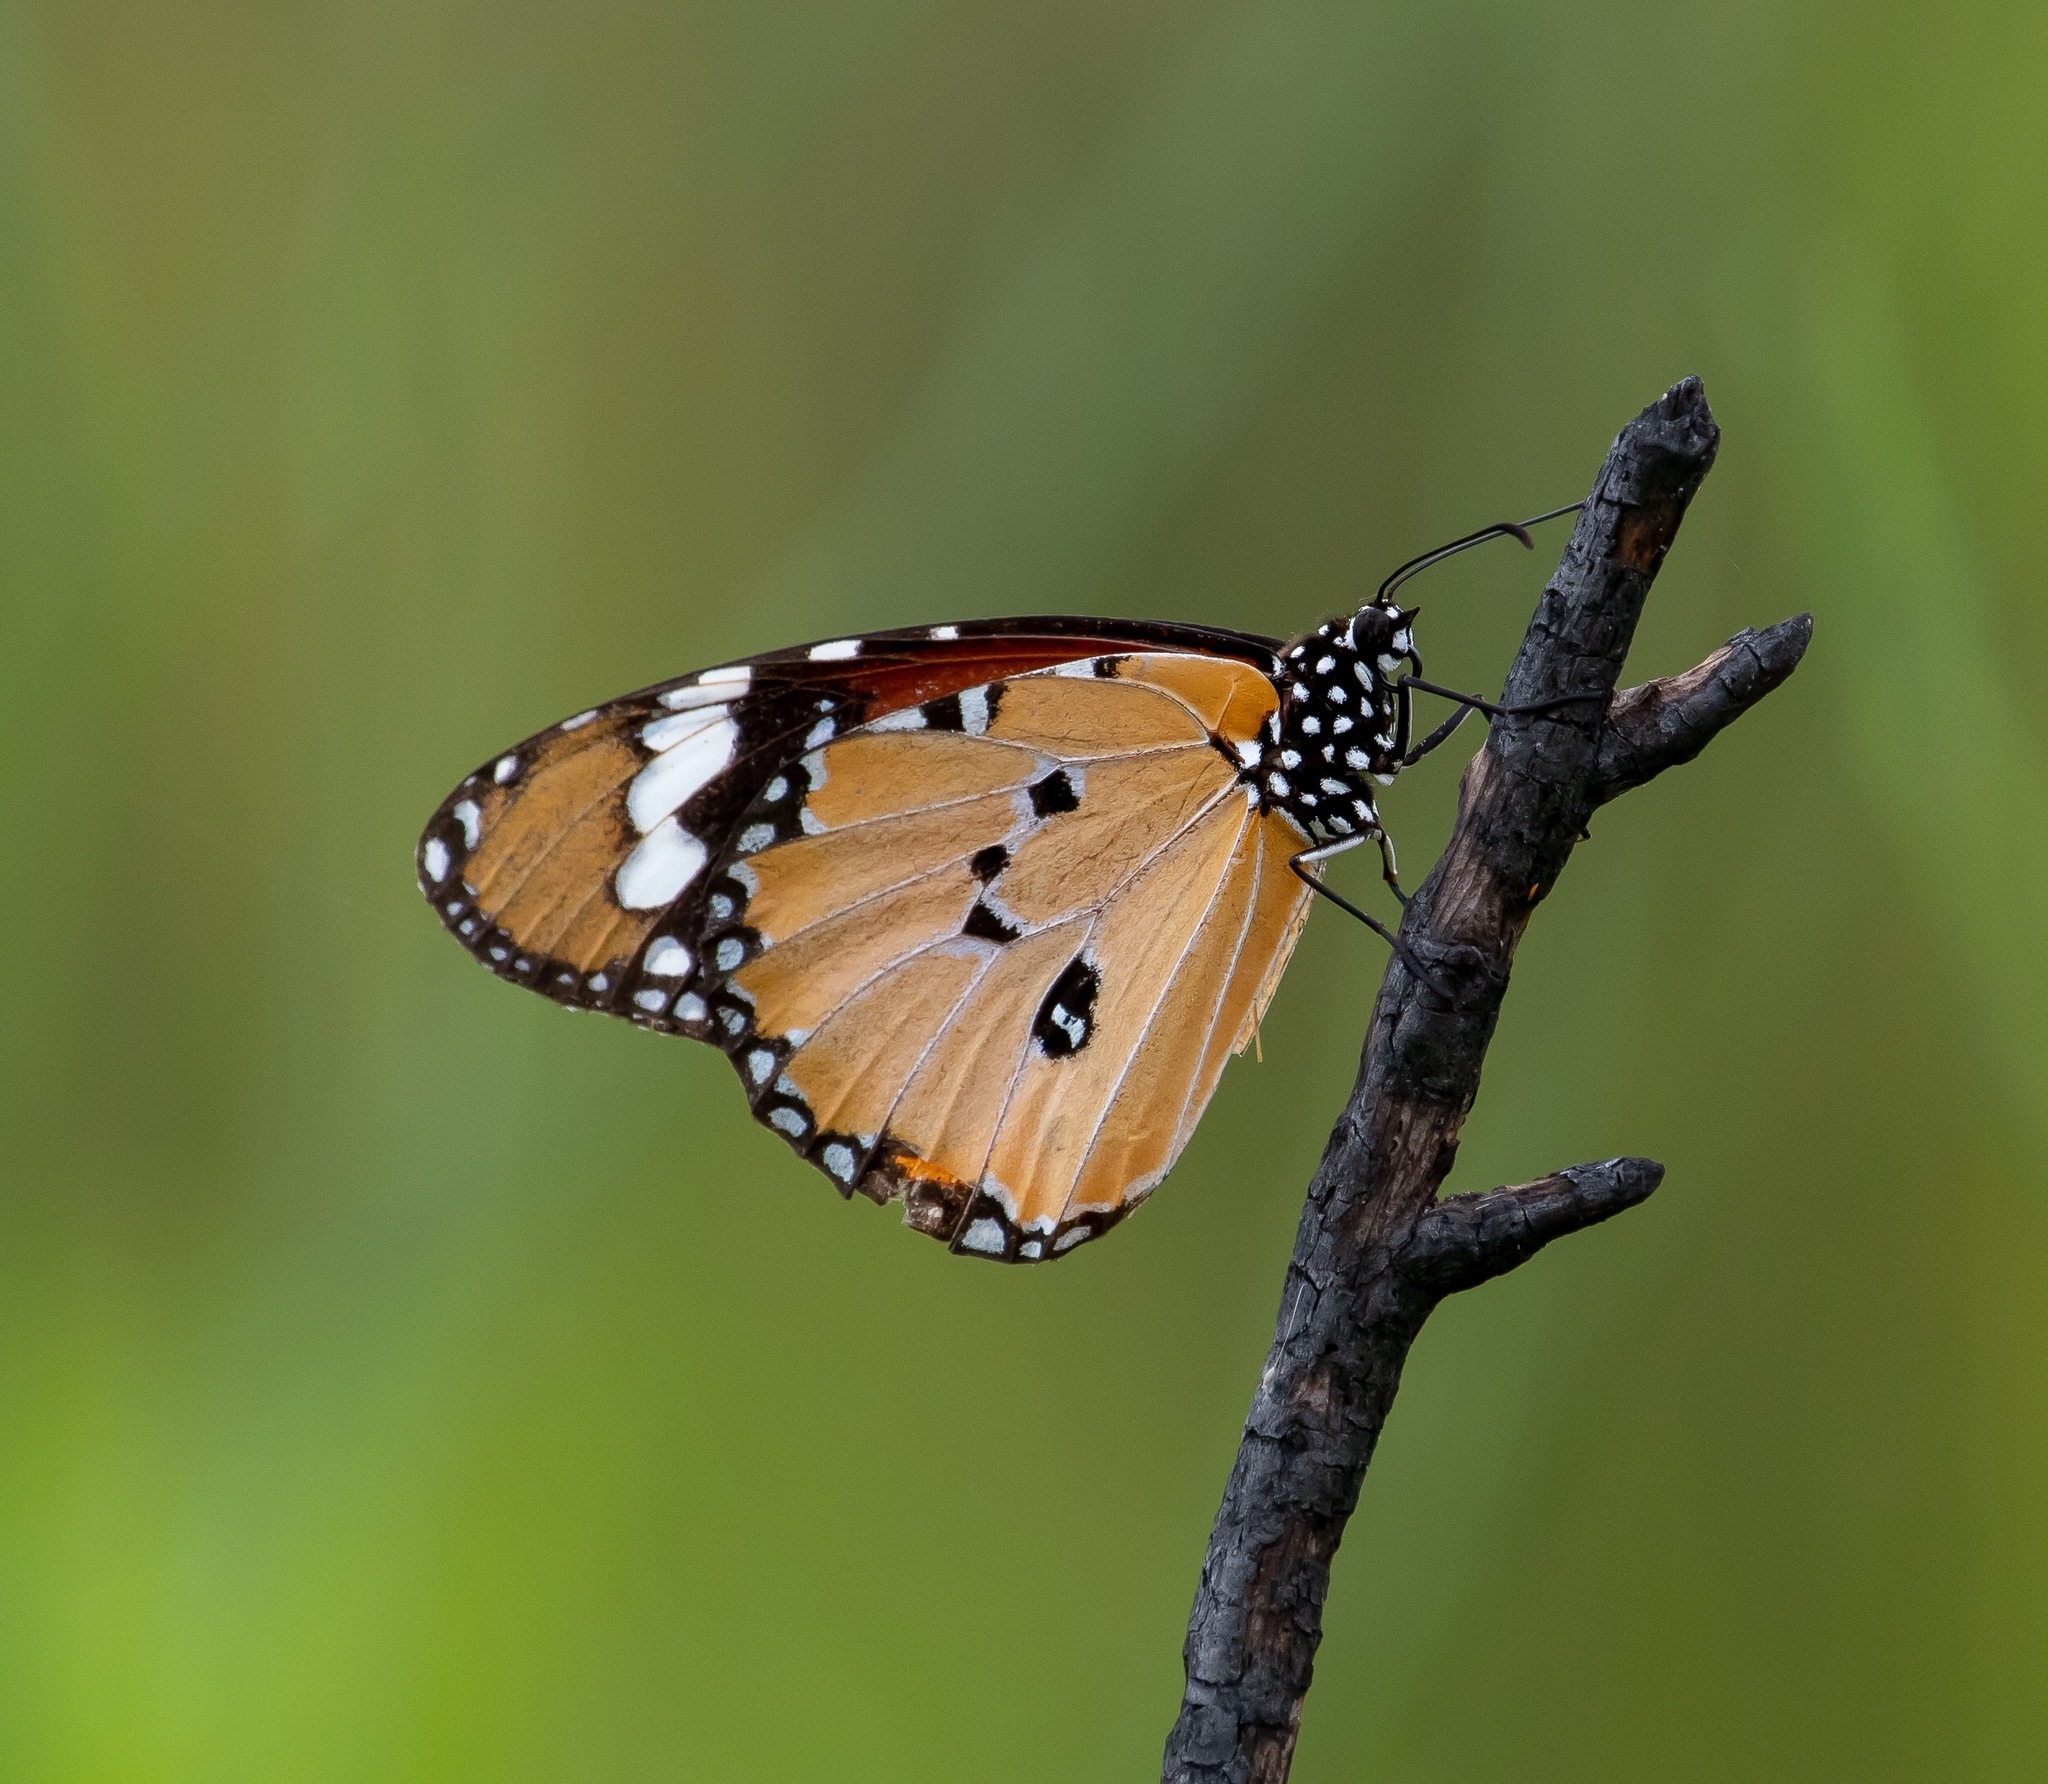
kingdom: Animalia
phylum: Arthropoda
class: Insecta
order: Lepidoptera
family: Nymphalidae
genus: Danaus
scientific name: Danaus chrysippus
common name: Plain tiger
